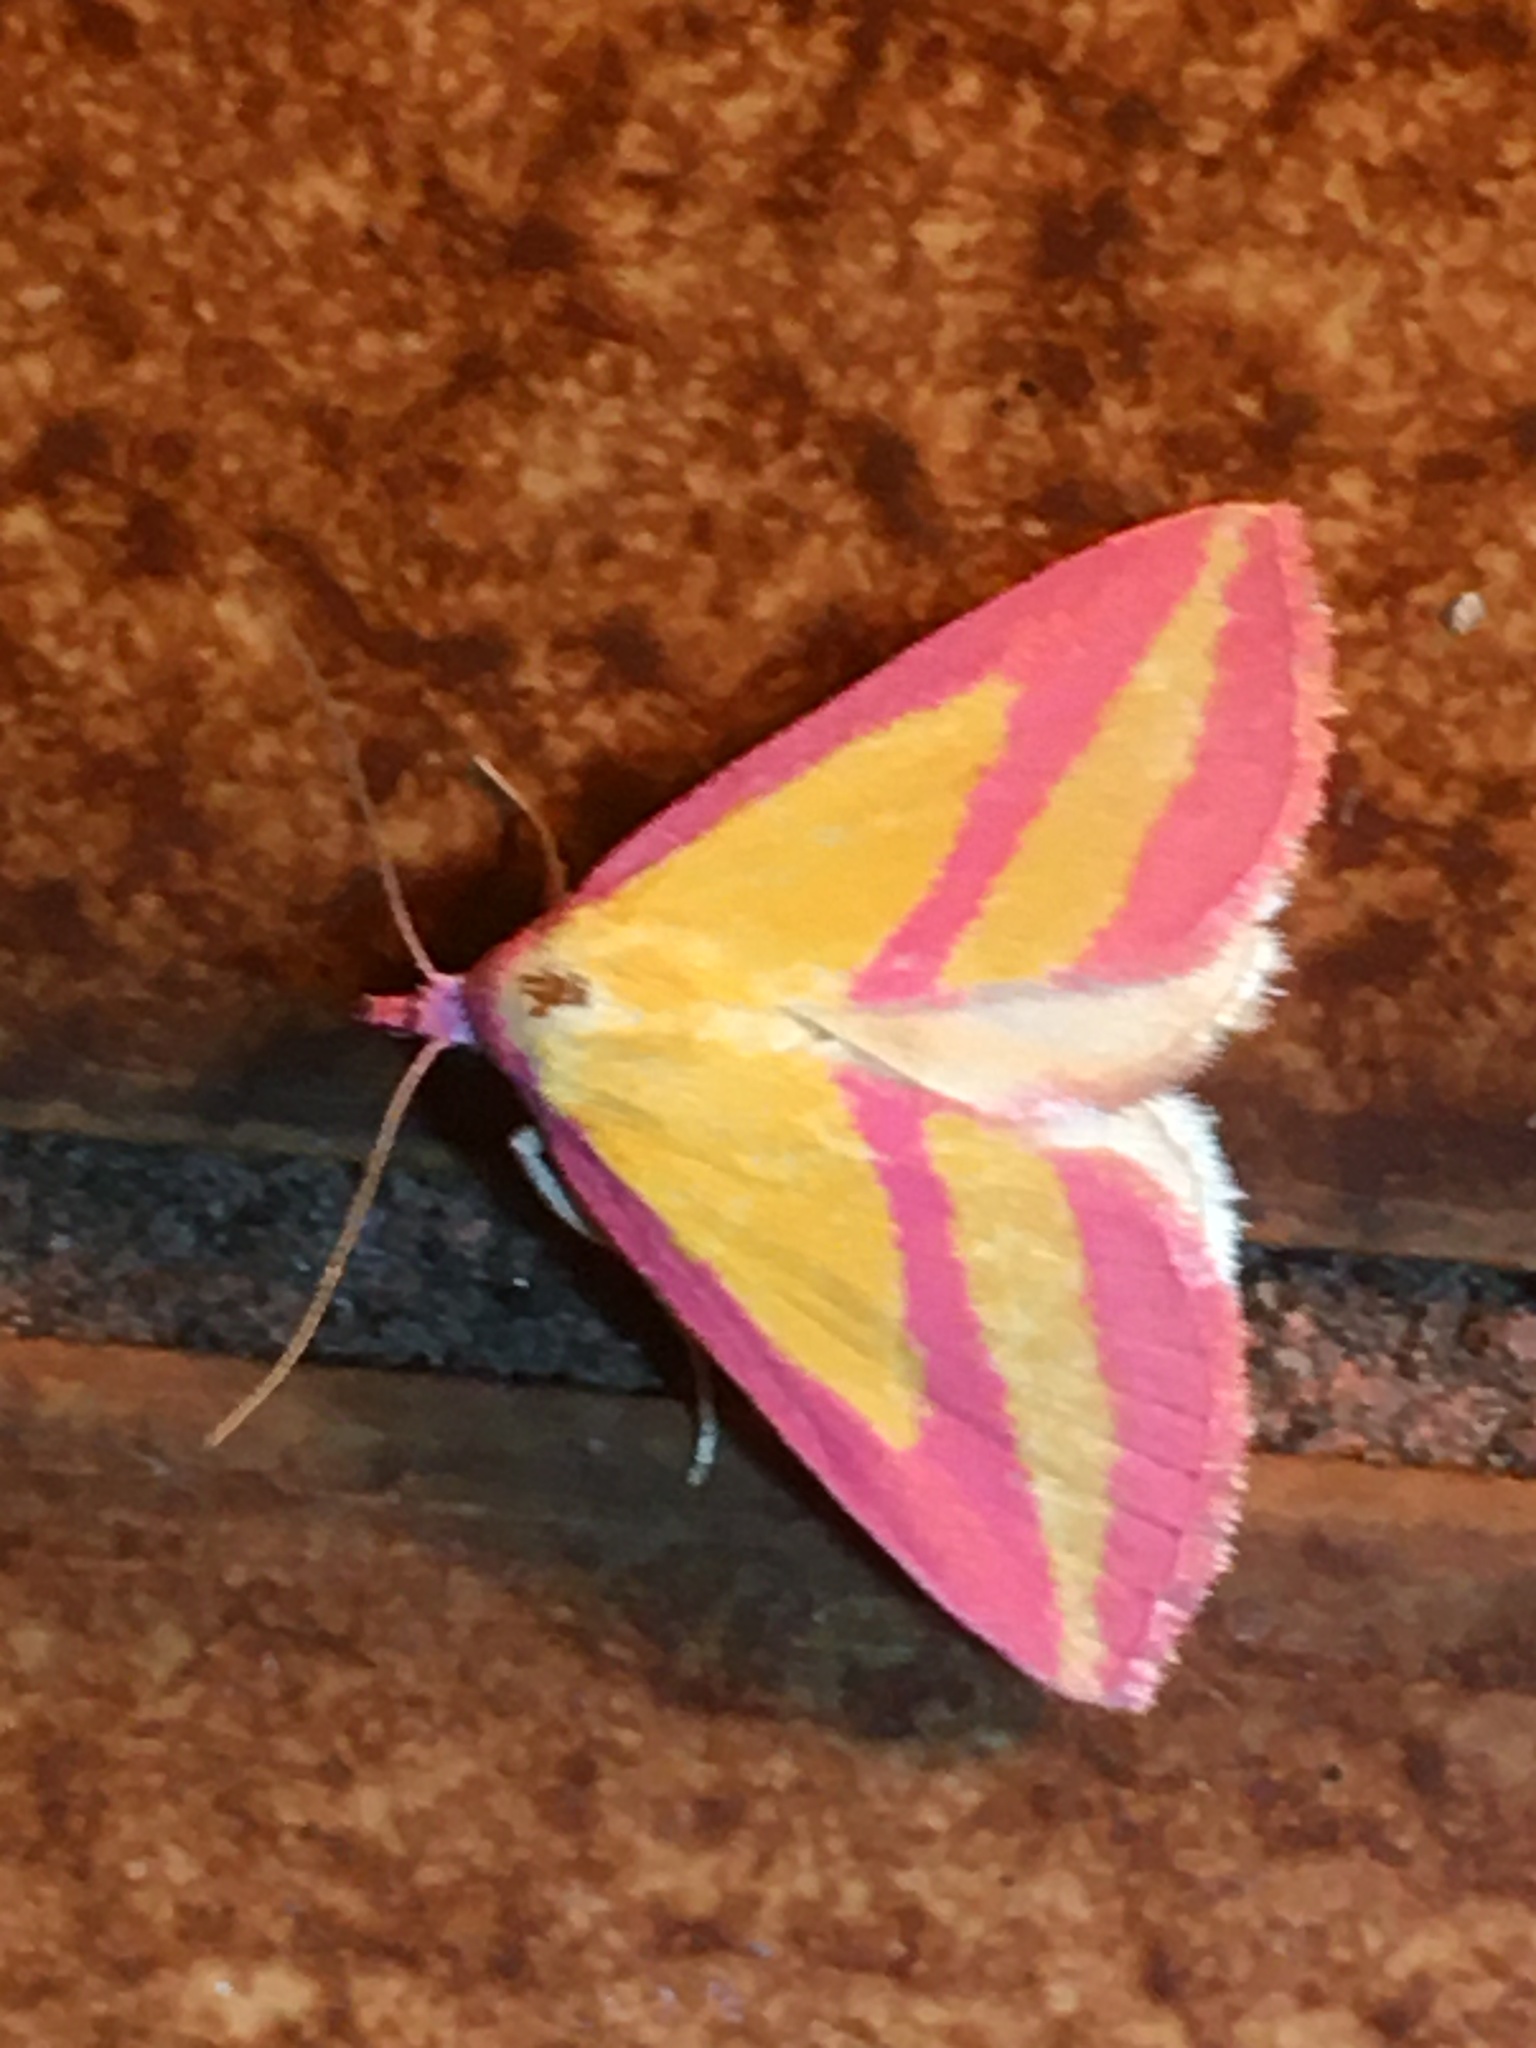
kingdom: Animalia
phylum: Arthropoda
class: Insecta
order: Lepidoptera
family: Erebidae
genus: Phytometra
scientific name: Phytometra neostrophis
